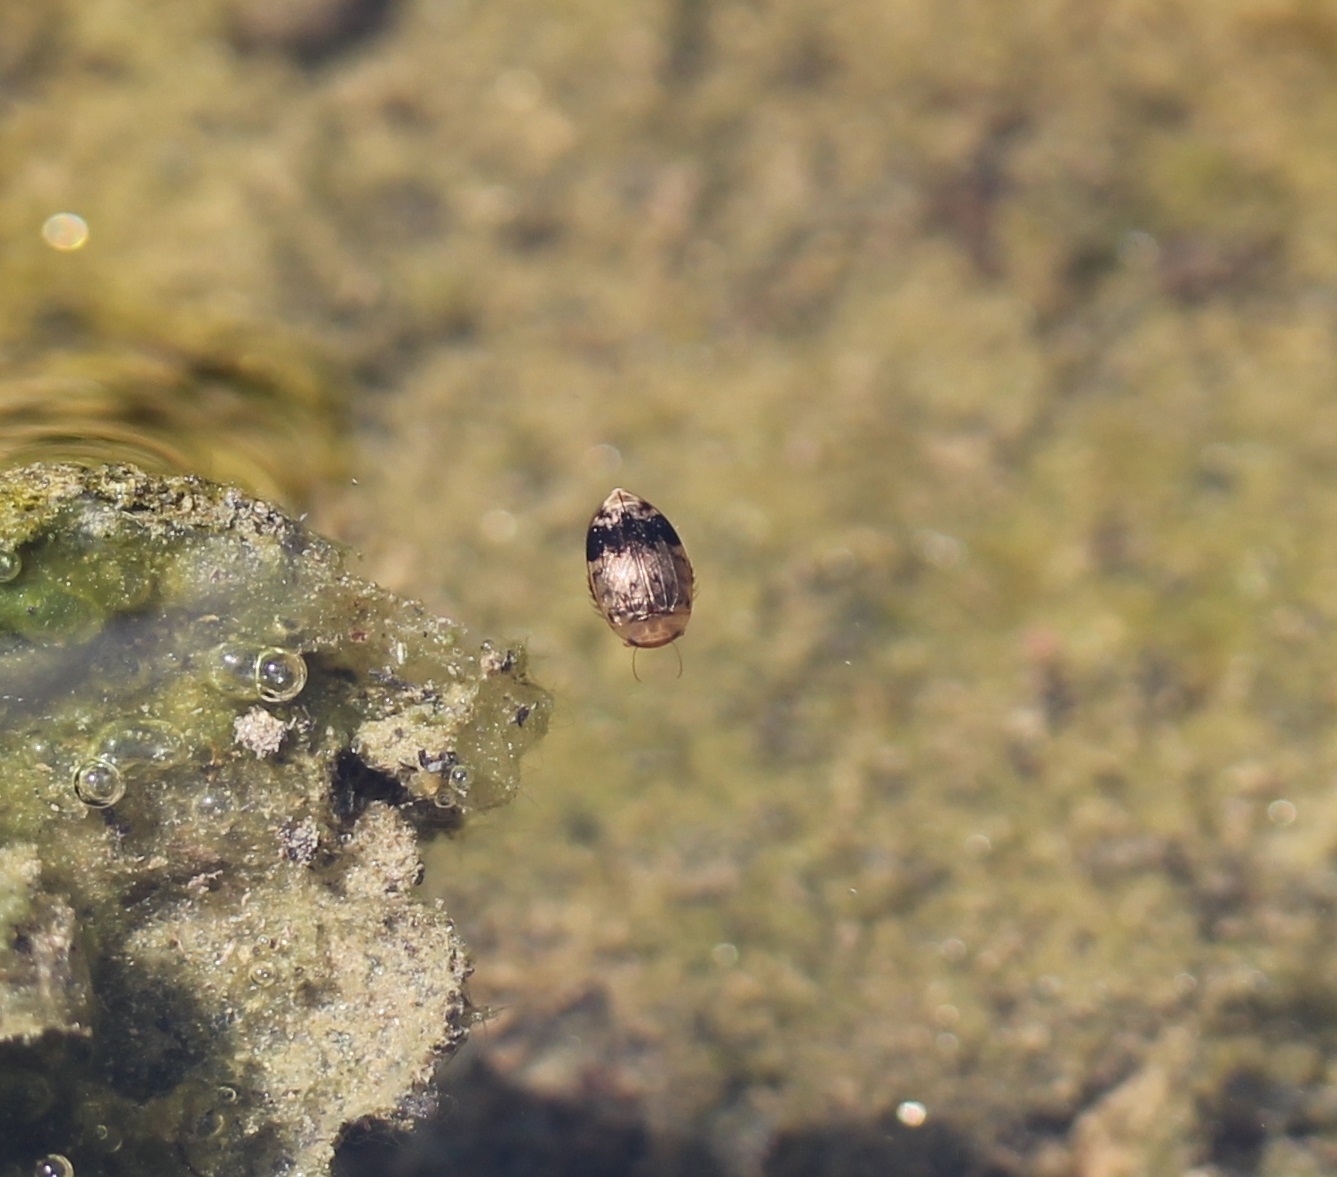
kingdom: Animalia
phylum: Arthropoda
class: Insecta
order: Coleoptera
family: Dytiscidae
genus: Laccophilus
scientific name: Laccophilus fasciatus
